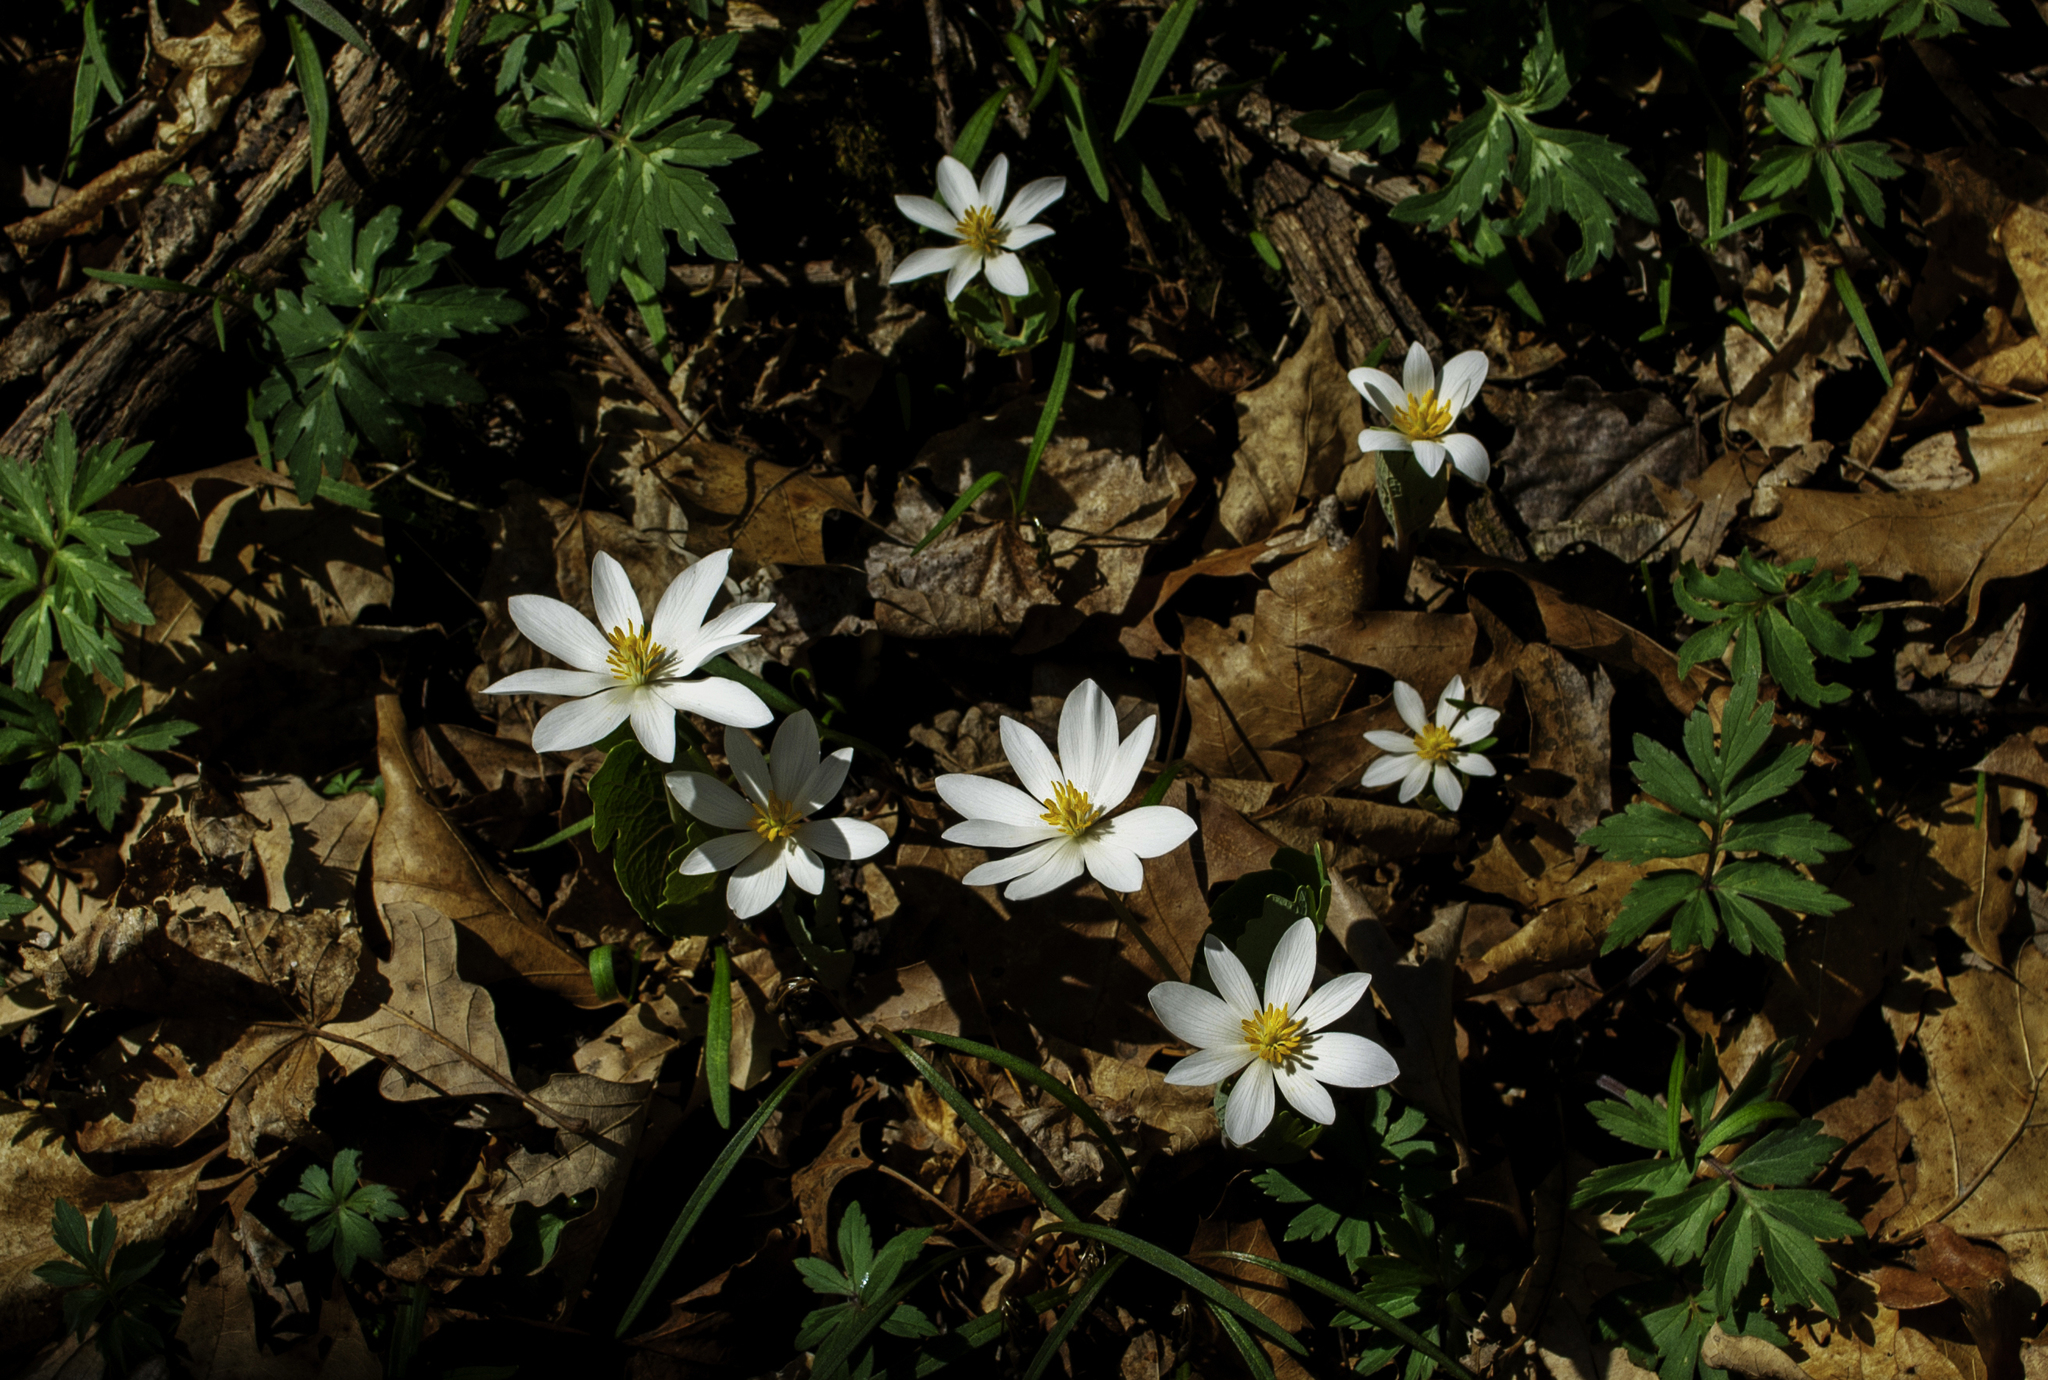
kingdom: Plantae
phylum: Tracheophyta
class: Magnoliopsida
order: Ranunculales
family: Papaveraceae
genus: Sanguinaria
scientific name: Sanguinaria canadensis
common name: Bloodroot
